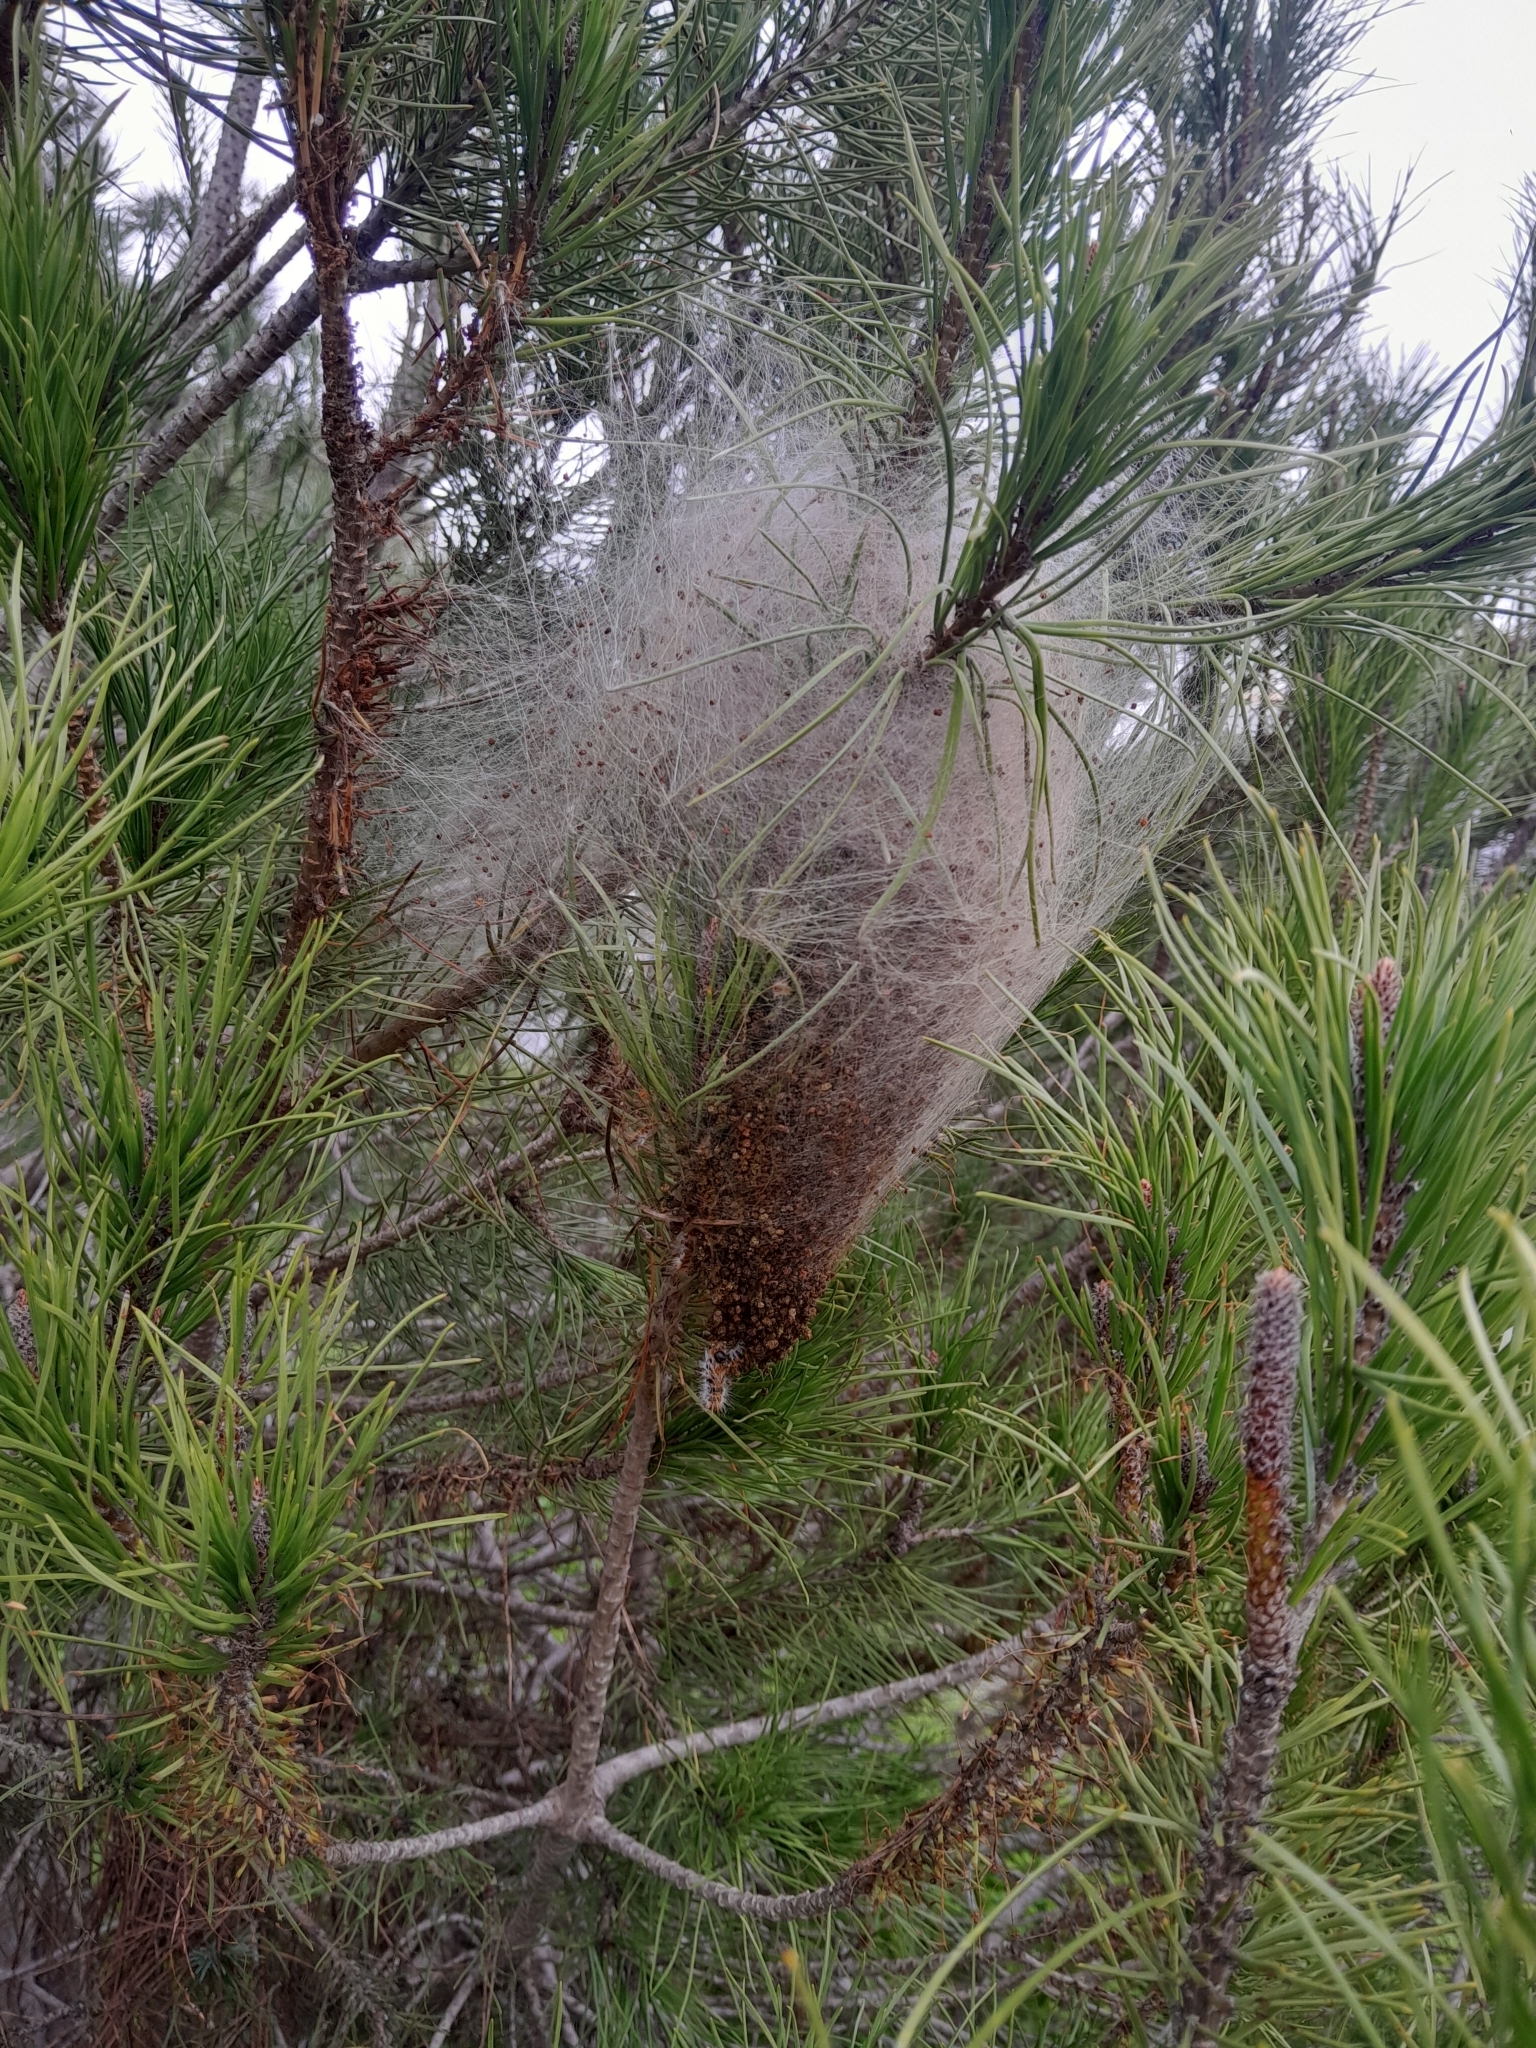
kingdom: Animalia
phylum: Arthropoda
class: Insecta
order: Lepidoptera
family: Notodontidae
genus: Thaumetopoea
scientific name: Thaumetopoea pityocampa
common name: Pine processionary
